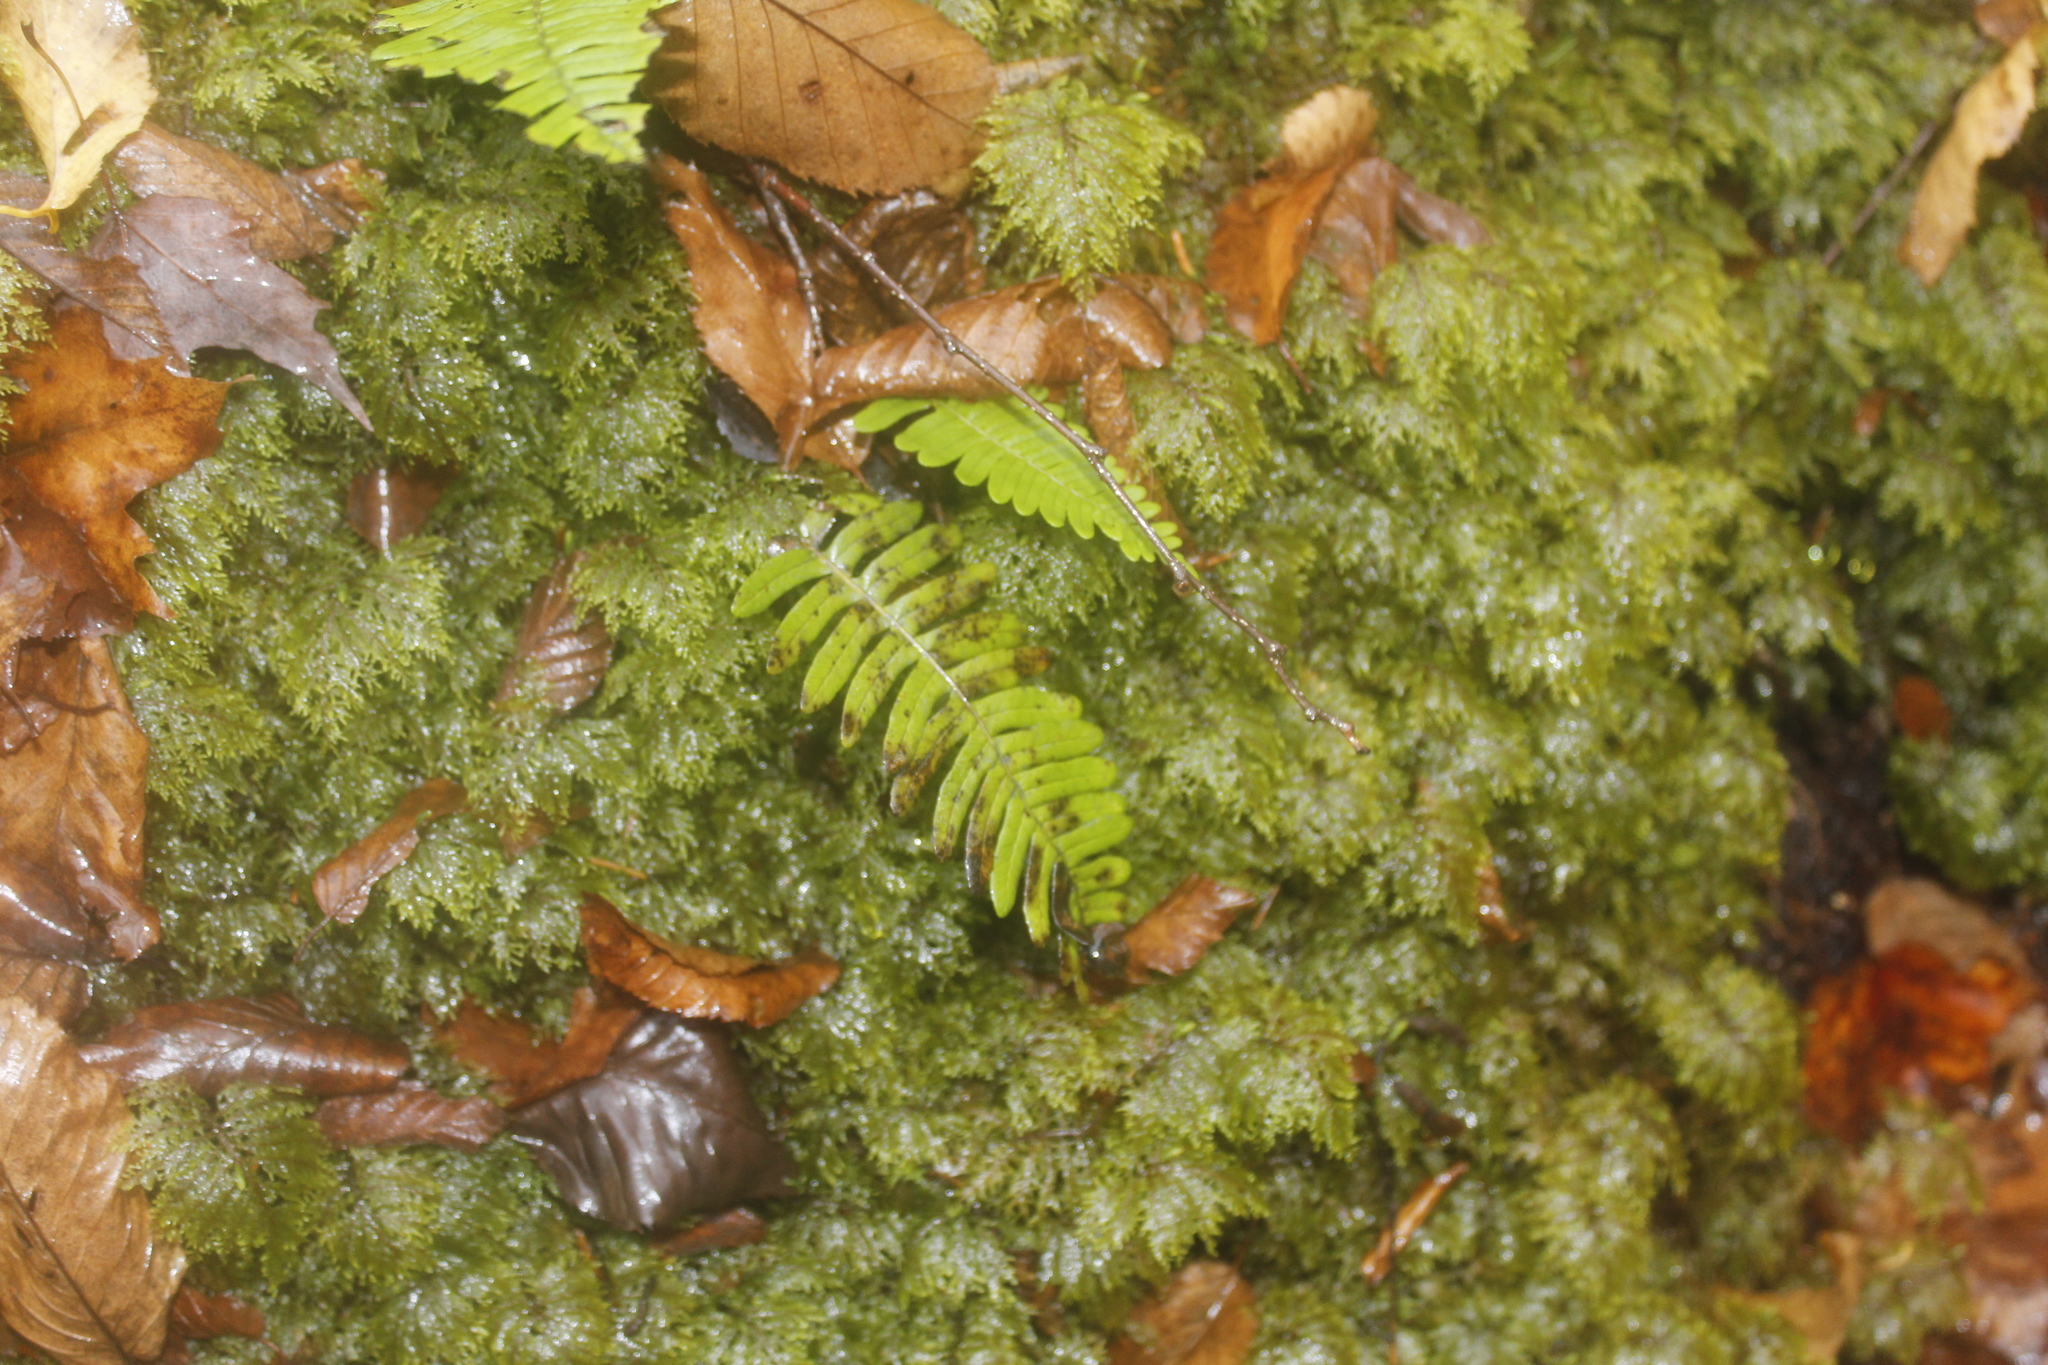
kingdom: Plantae
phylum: Tracheophyta
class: Polypodiopsida
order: Polypodiales
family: Polypodiaceae
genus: Polypodium
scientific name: Polypodium virginianum
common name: American wall fern
